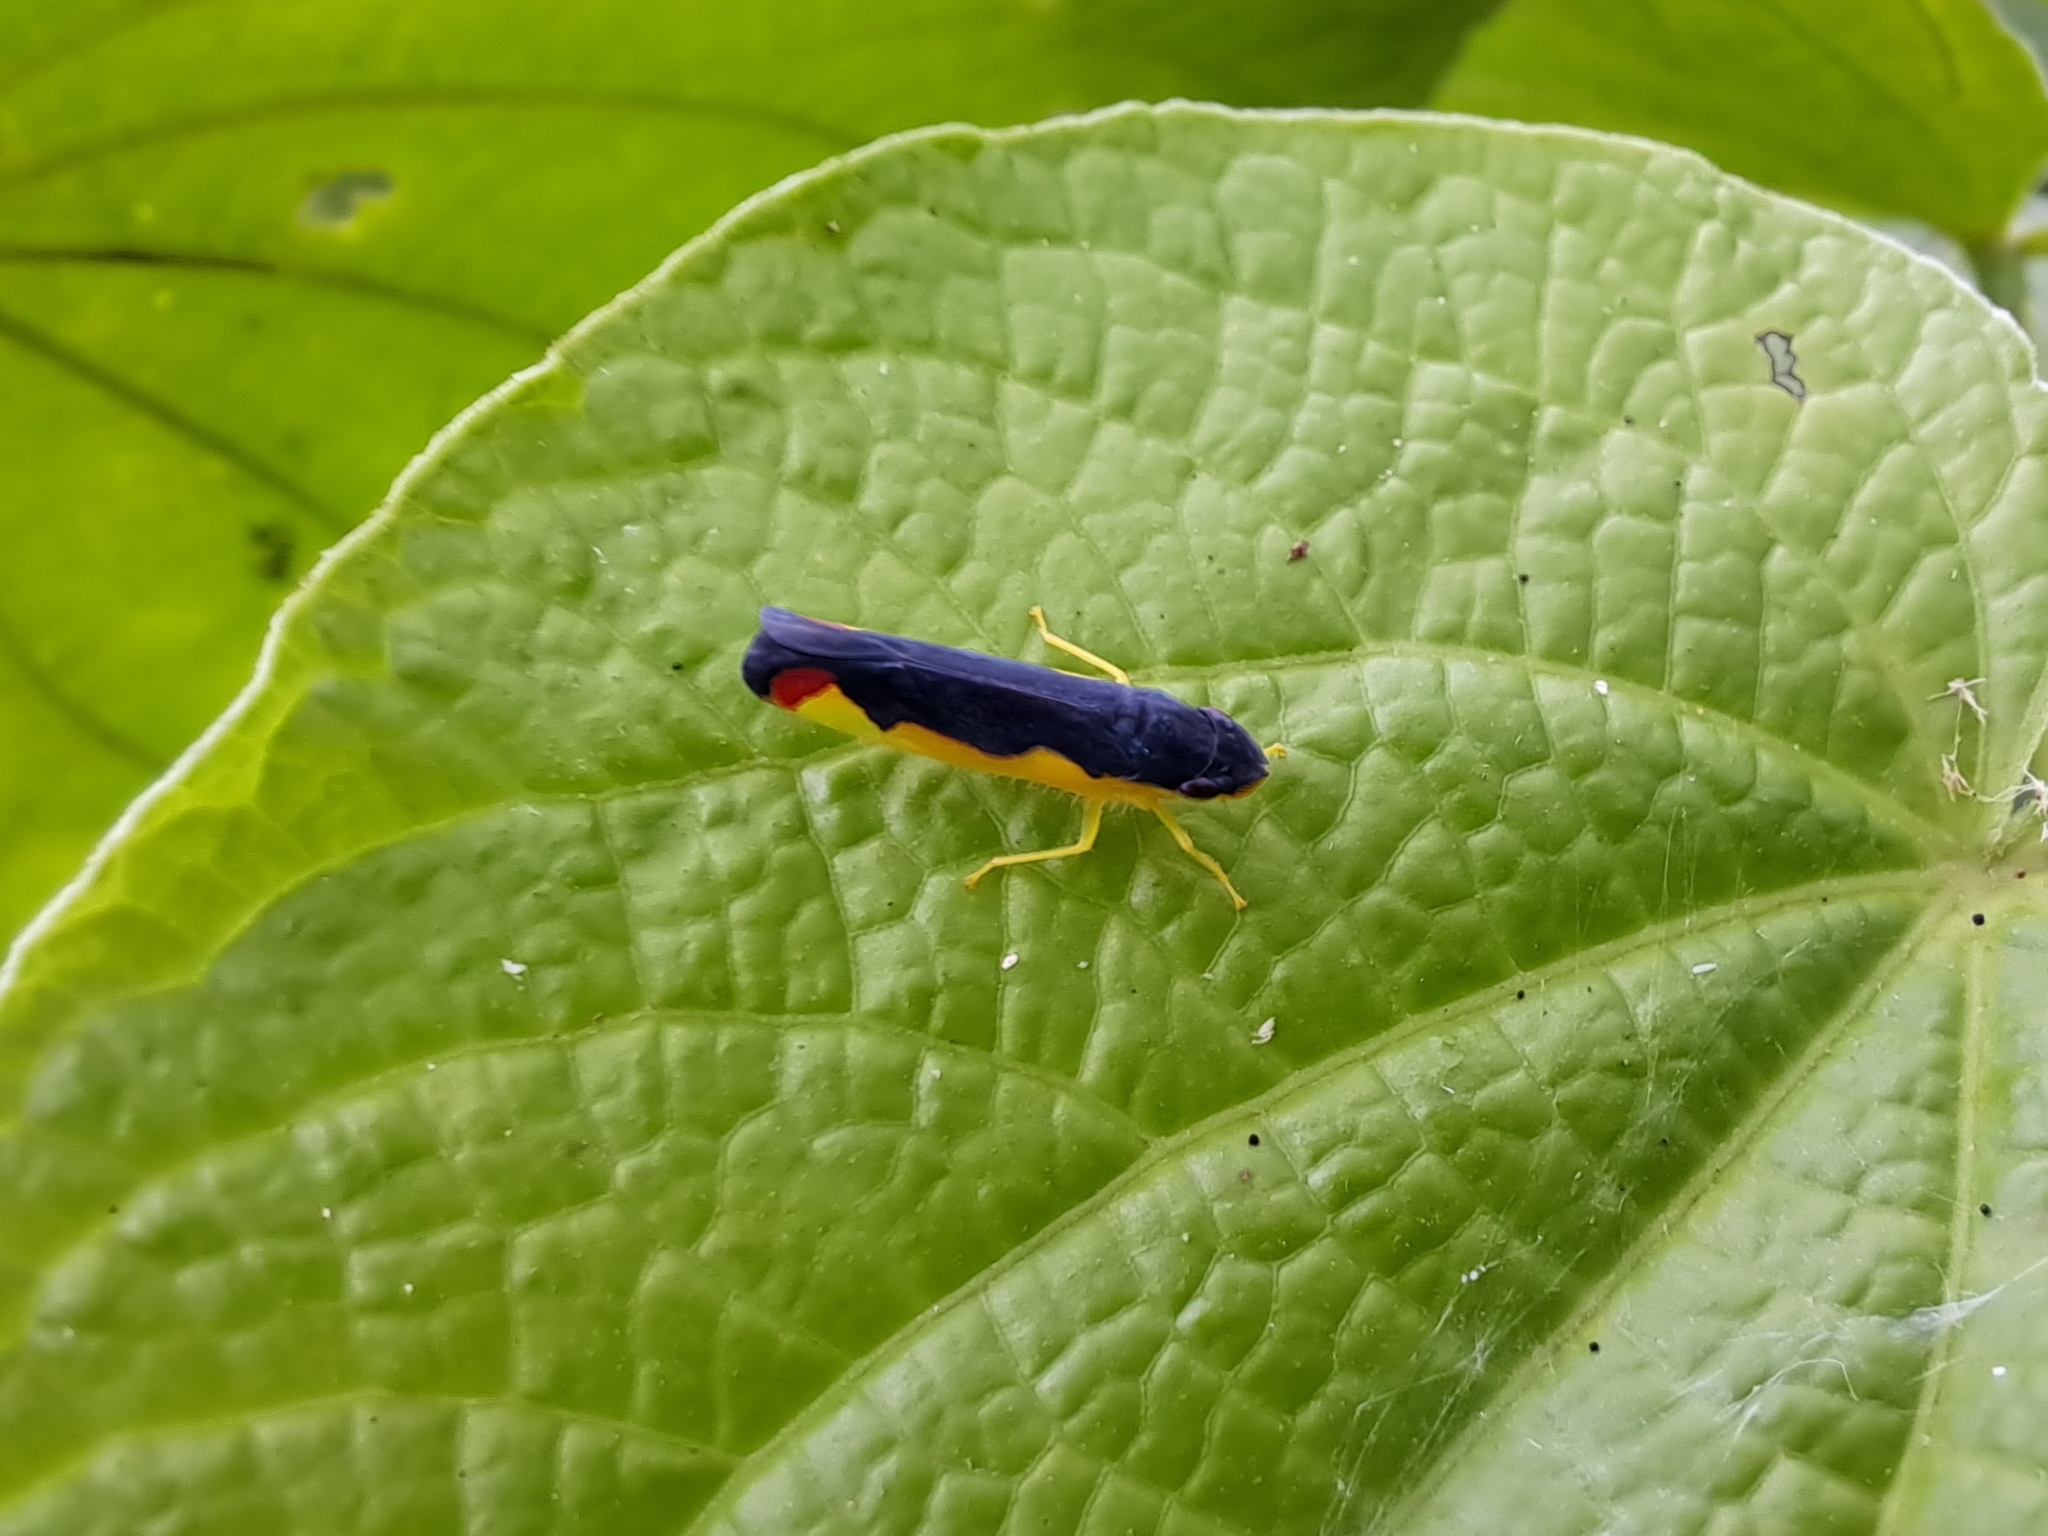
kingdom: Animalia
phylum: Arthropoda
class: Insecta
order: Hemiptera
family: Cicadellidae
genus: Baleja
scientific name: Baleja serratula
